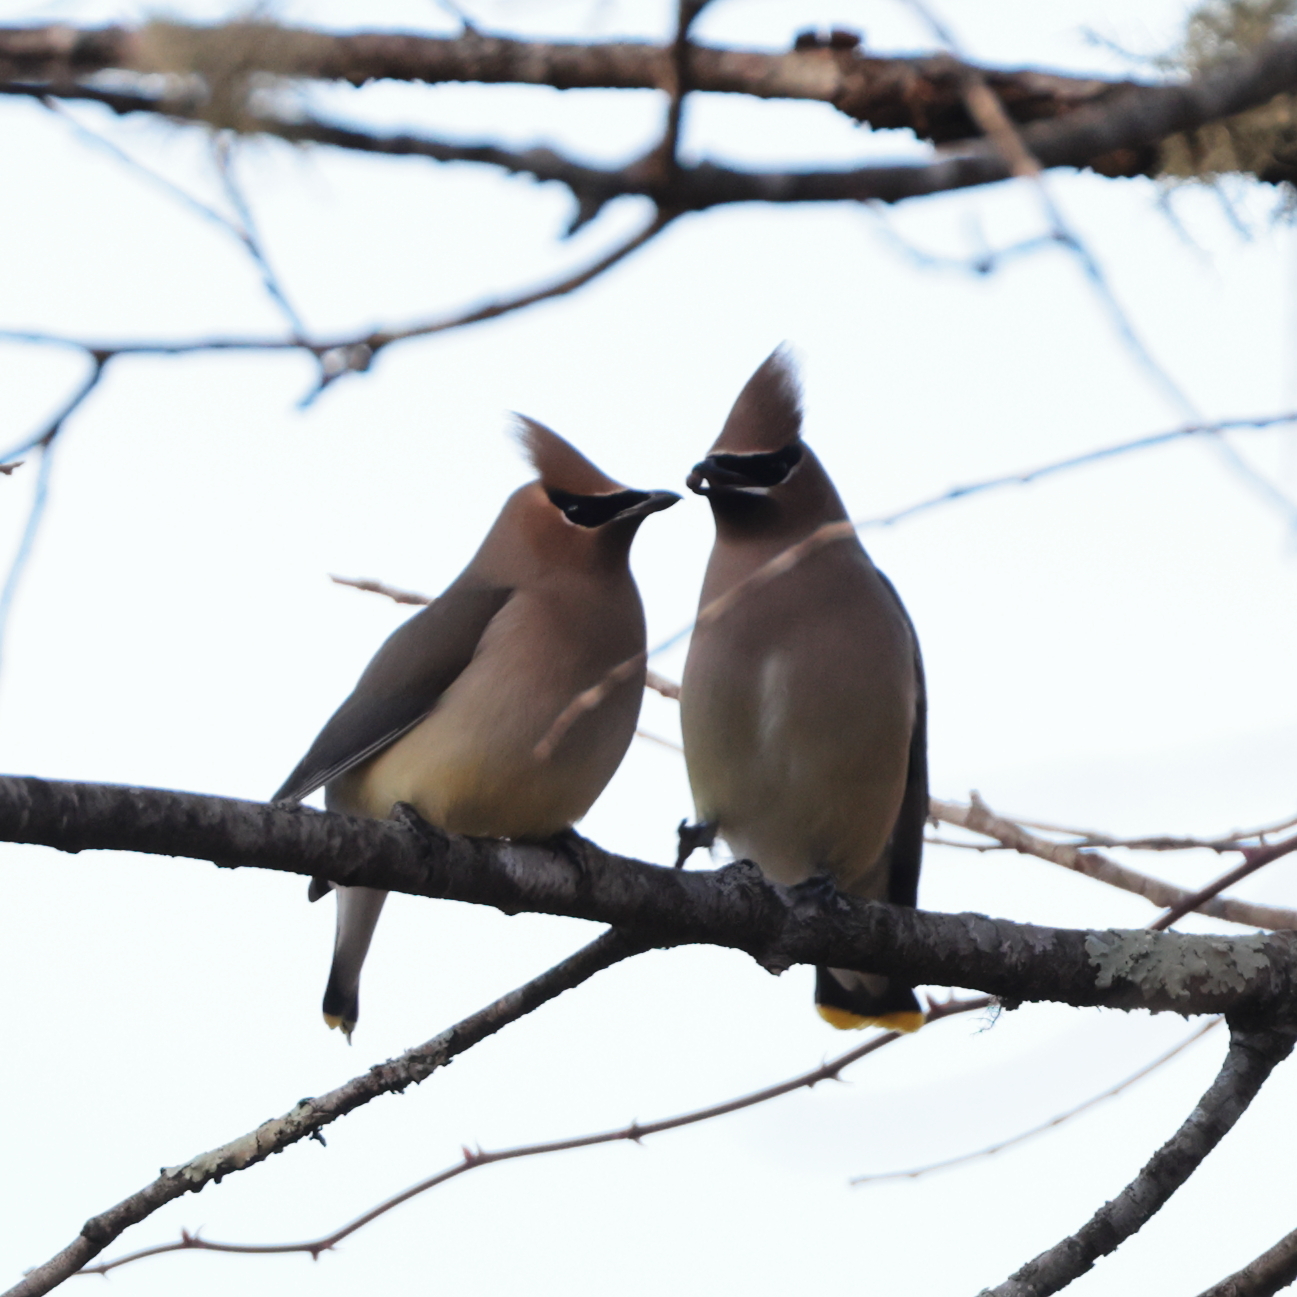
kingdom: Animalia
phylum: Chordata
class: Aves
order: Passeriformes
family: Bombycillidae
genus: Bombycilla
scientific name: Bombycilla cedrorum
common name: Cedar waxwing
